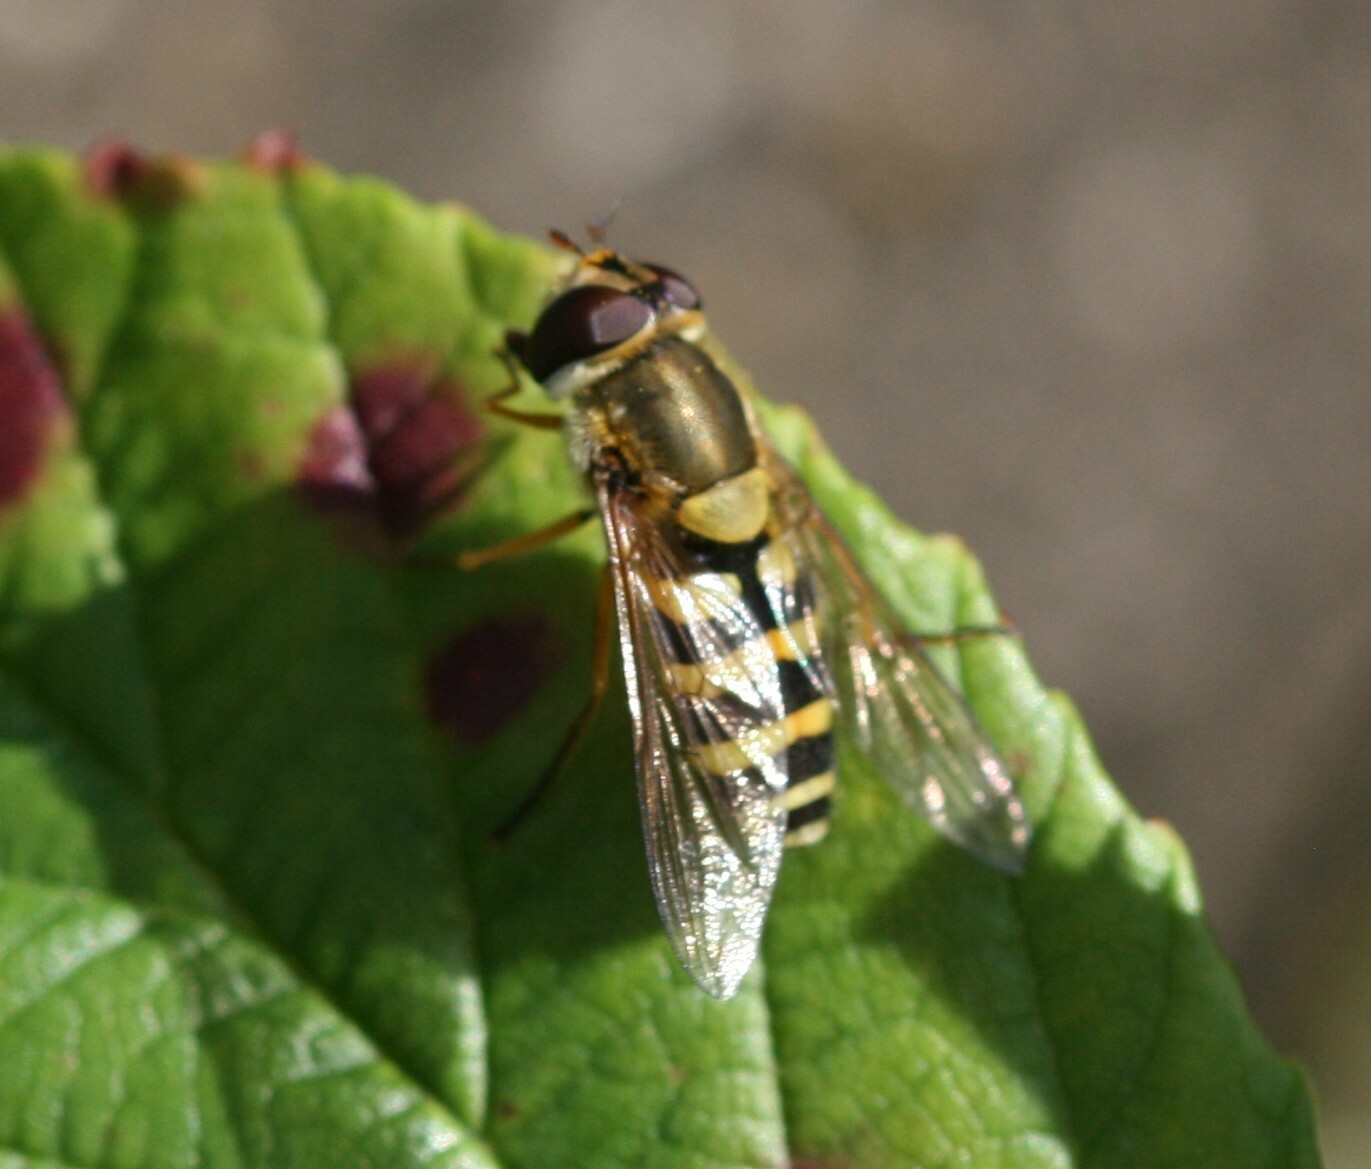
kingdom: Animalia
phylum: Arthropoda
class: Insecta
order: Diptera
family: Syrphidae
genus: Syrphus
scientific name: Syrphus ribesii
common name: Common flower fly
